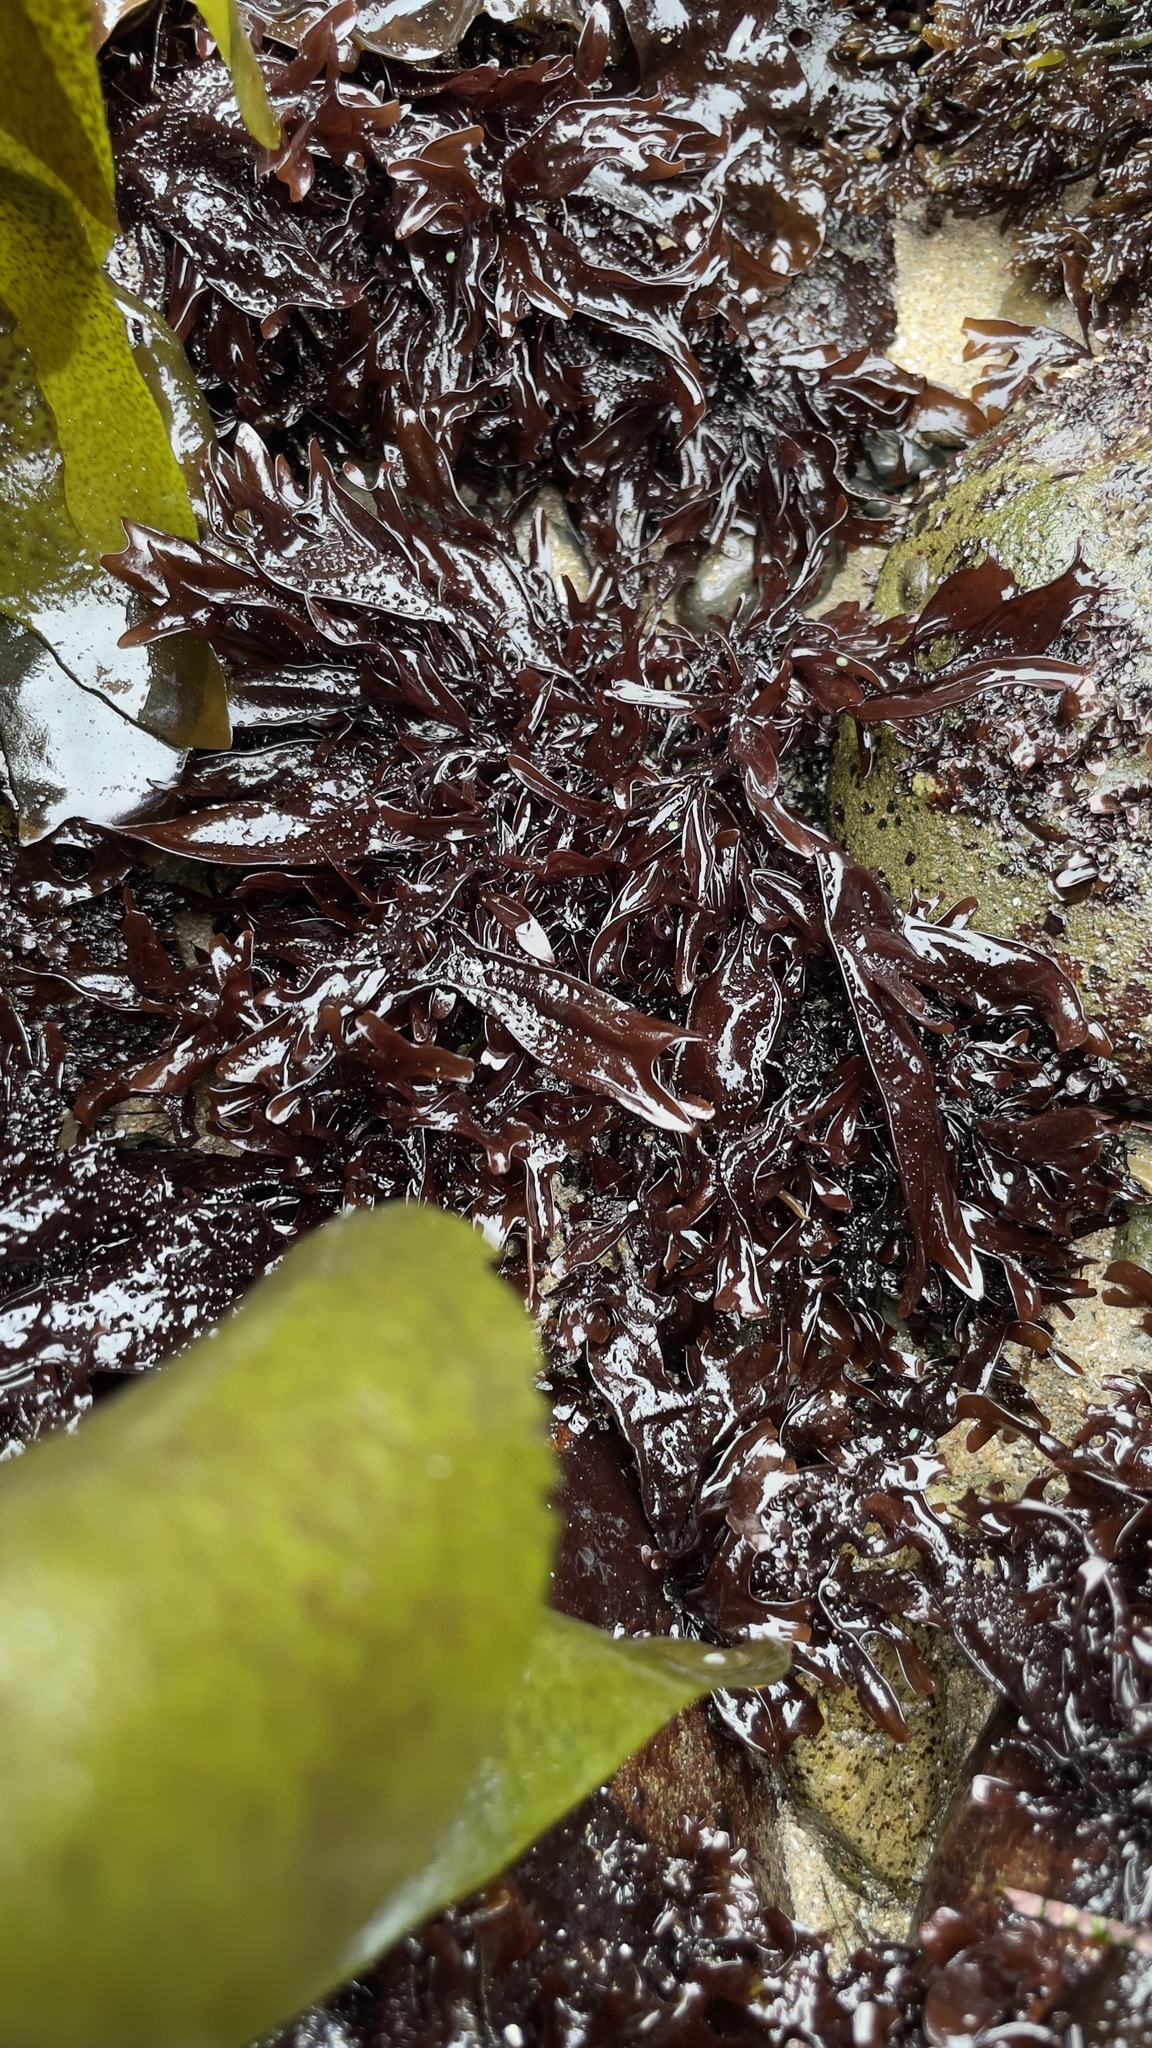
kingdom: Plantae
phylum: Rhodophyta
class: Florideophyceae
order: Gigartinales
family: Phyllophoraceae
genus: Mastocarpus
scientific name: Mastocarpus jardinii
